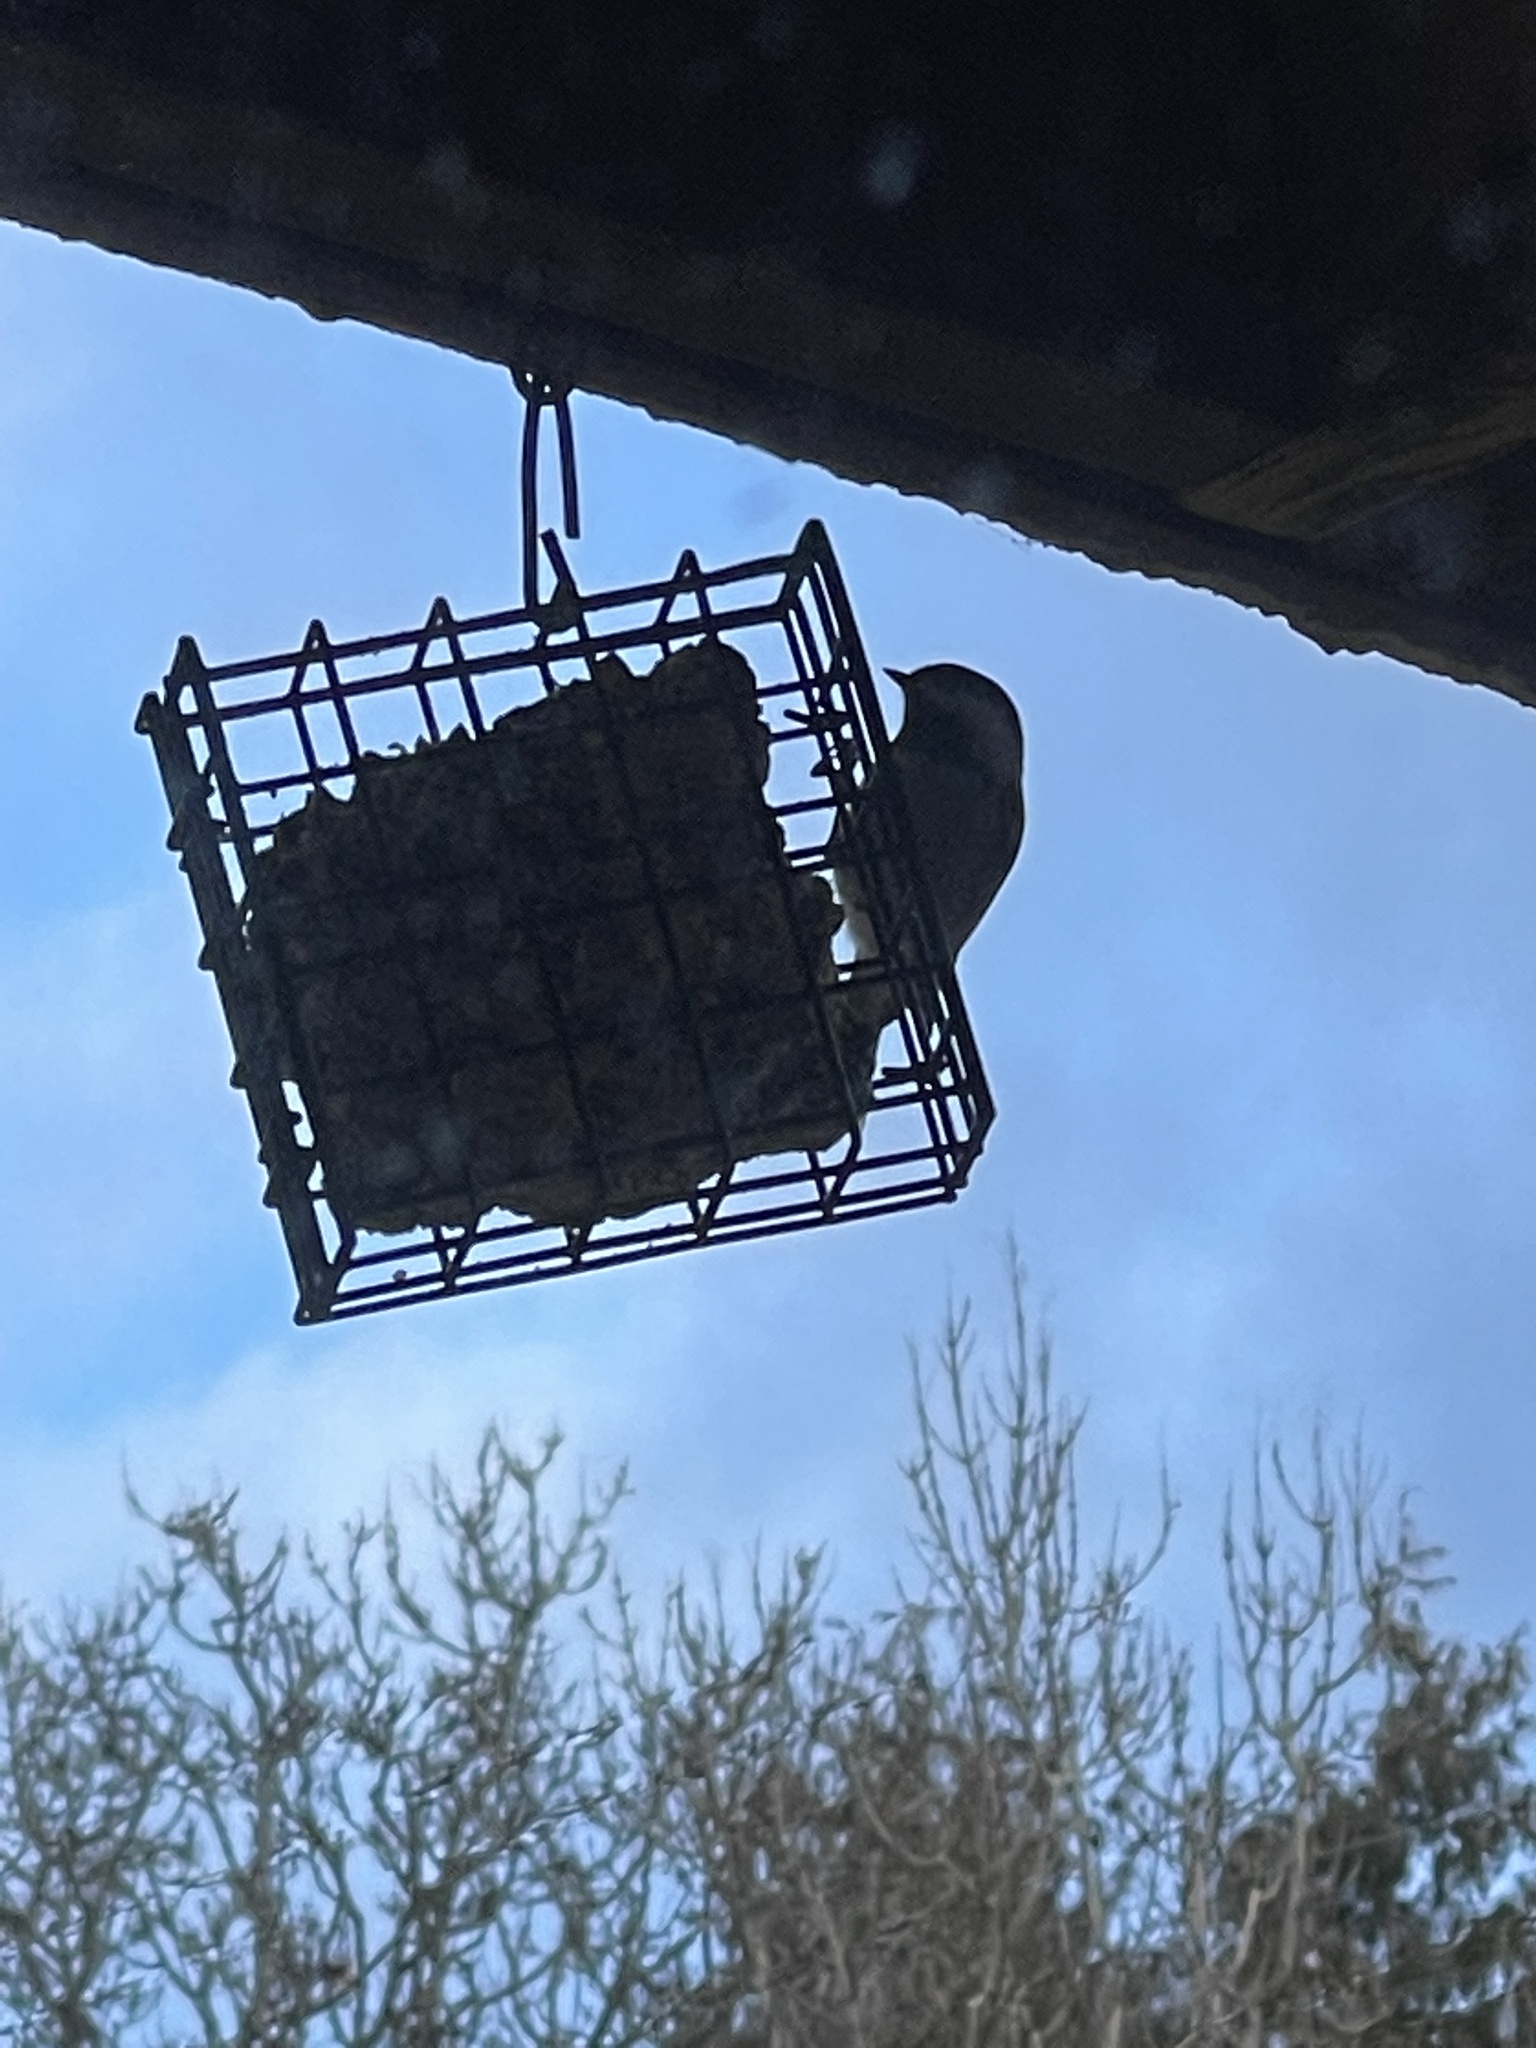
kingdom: Animalia
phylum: Chordata
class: Aves
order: Passeriformes
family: Paridae
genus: Poecile
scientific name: Poecile rufescens
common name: Chestnut-backed chickadee
